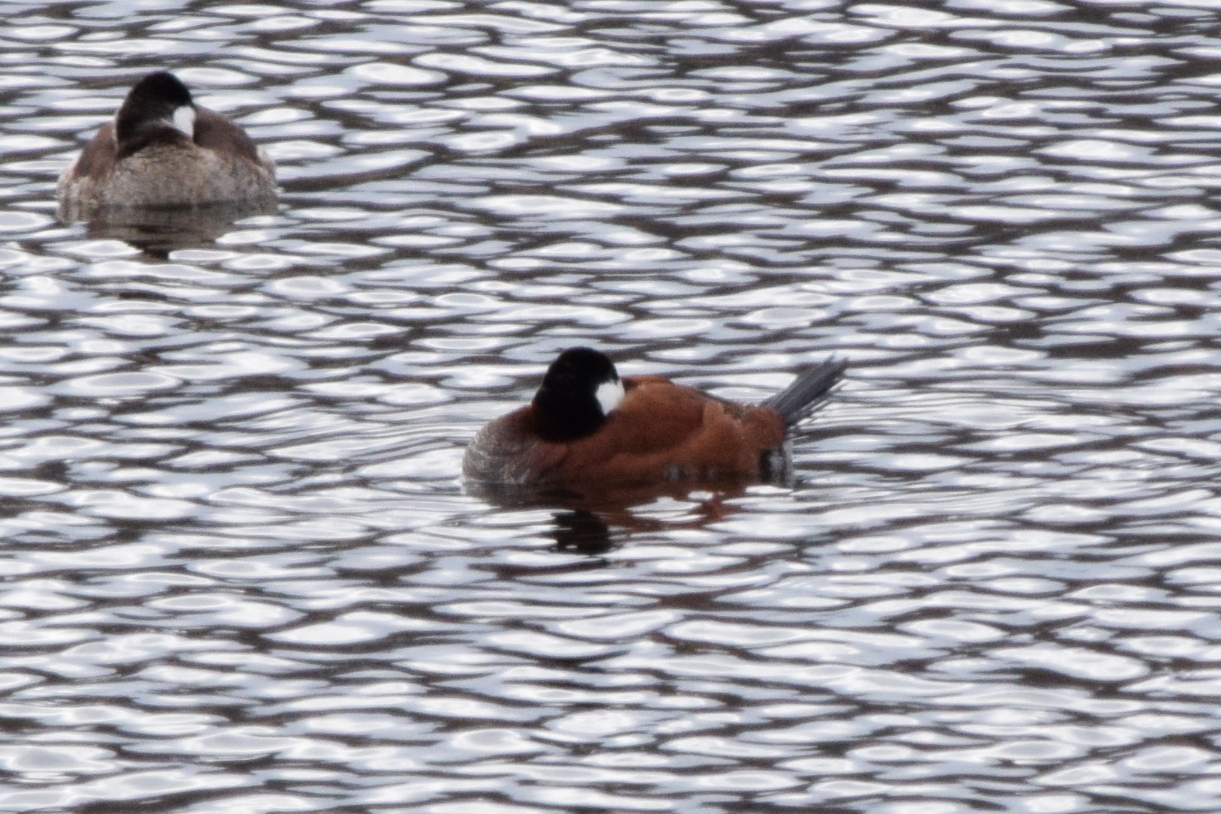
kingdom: Animalia
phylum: Chordata
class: Aves
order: Anseriformes
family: Anatidae
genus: Oxyura
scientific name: Oxyura jamaicensis
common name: Ruddy duck
